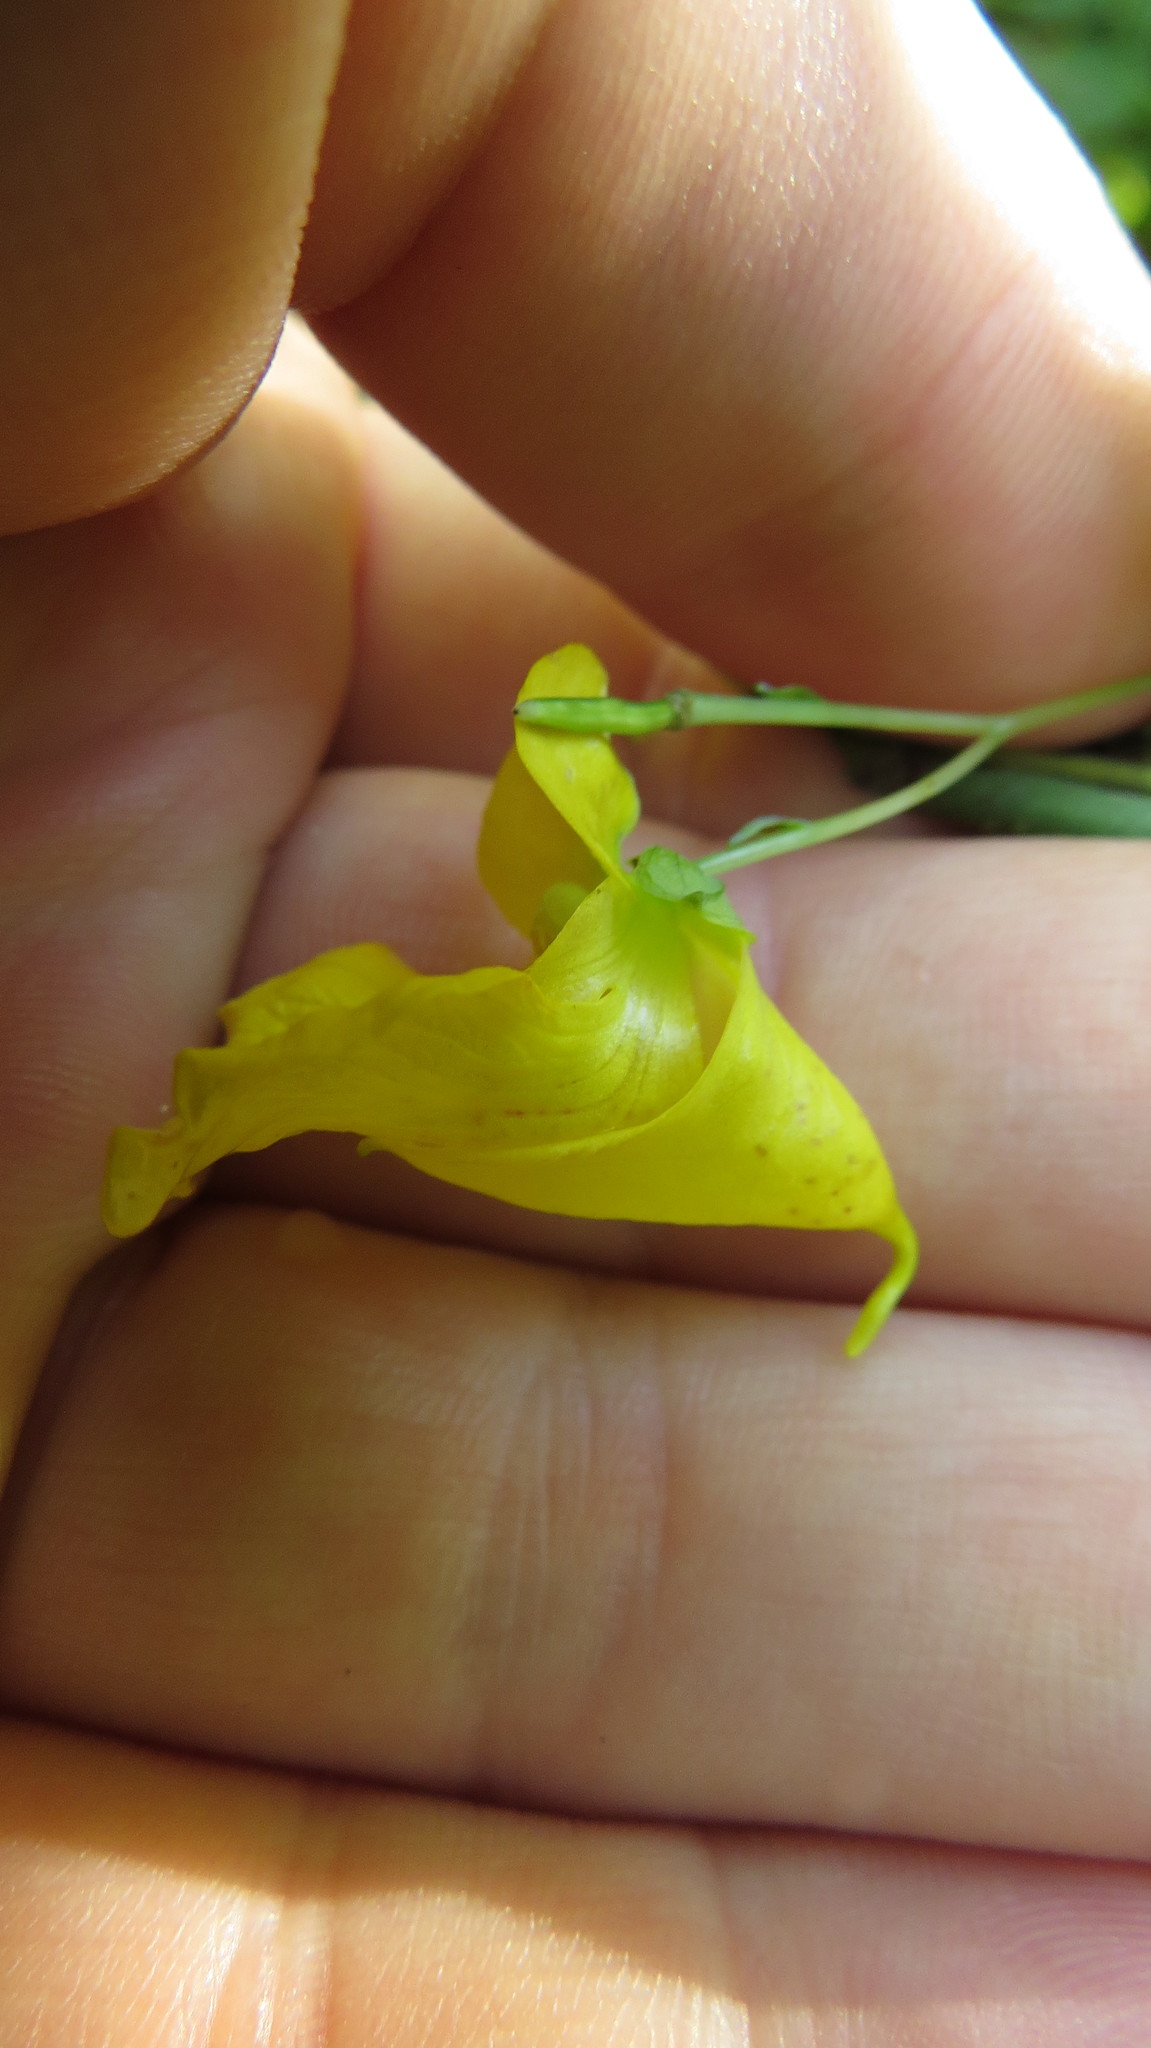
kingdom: Plantae
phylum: Tracheophyta
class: Magnoliopsida
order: Ericales
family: Balsaminaceae
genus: Impatiens
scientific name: Impatiens pallida
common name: Pale snapweed
